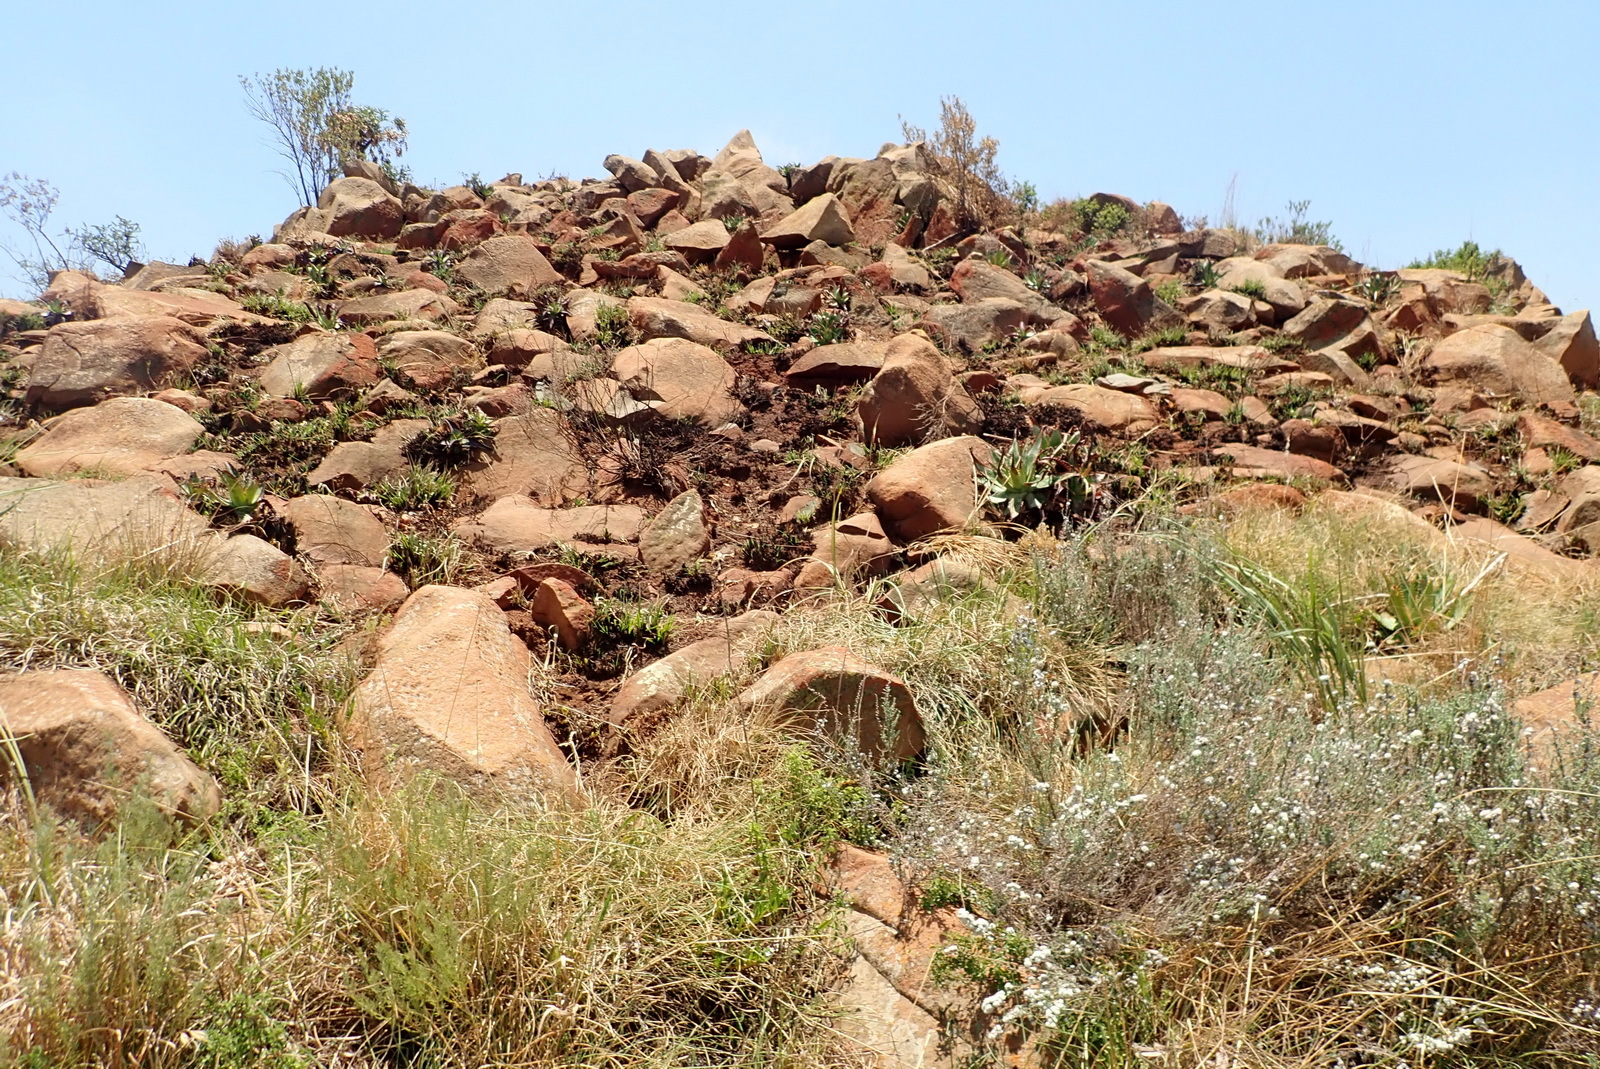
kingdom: Plantae
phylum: Tracheophyta
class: Liliopsida
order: Asparagales
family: Asphodelaceae
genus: Aloe
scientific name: Aloe davyana
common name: Spotted aloe
